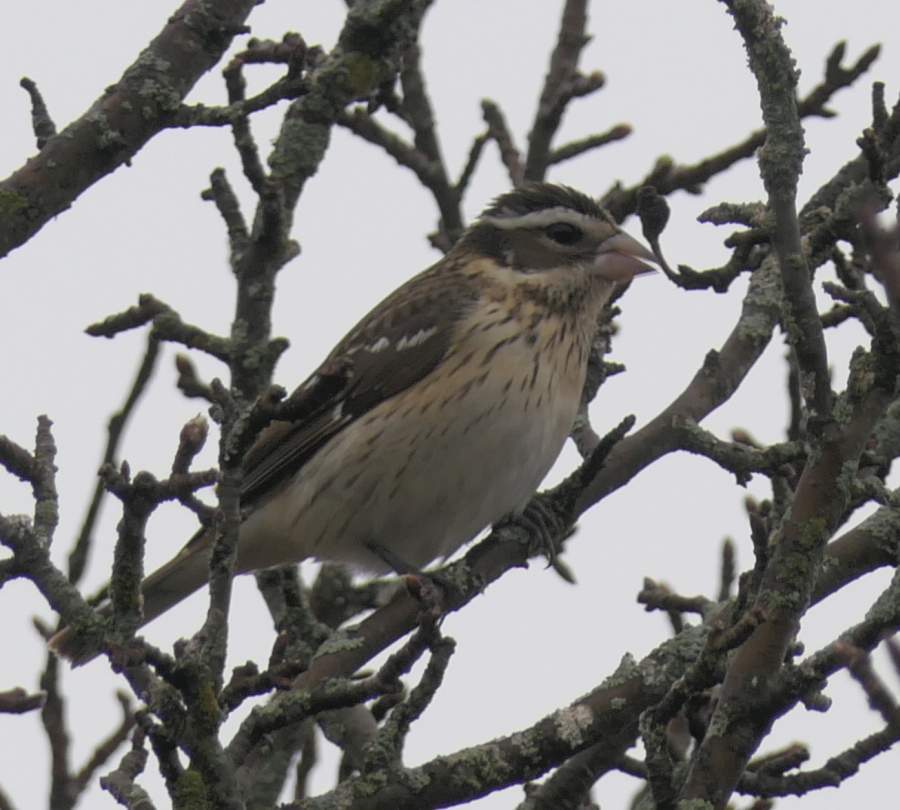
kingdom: Animalia
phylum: Chordata
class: Aves
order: Passeriformes
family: Cardinalidae
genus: Pheucticus
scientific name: Pheucticus ludovicianus
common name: Rose-breasted grosbeak
